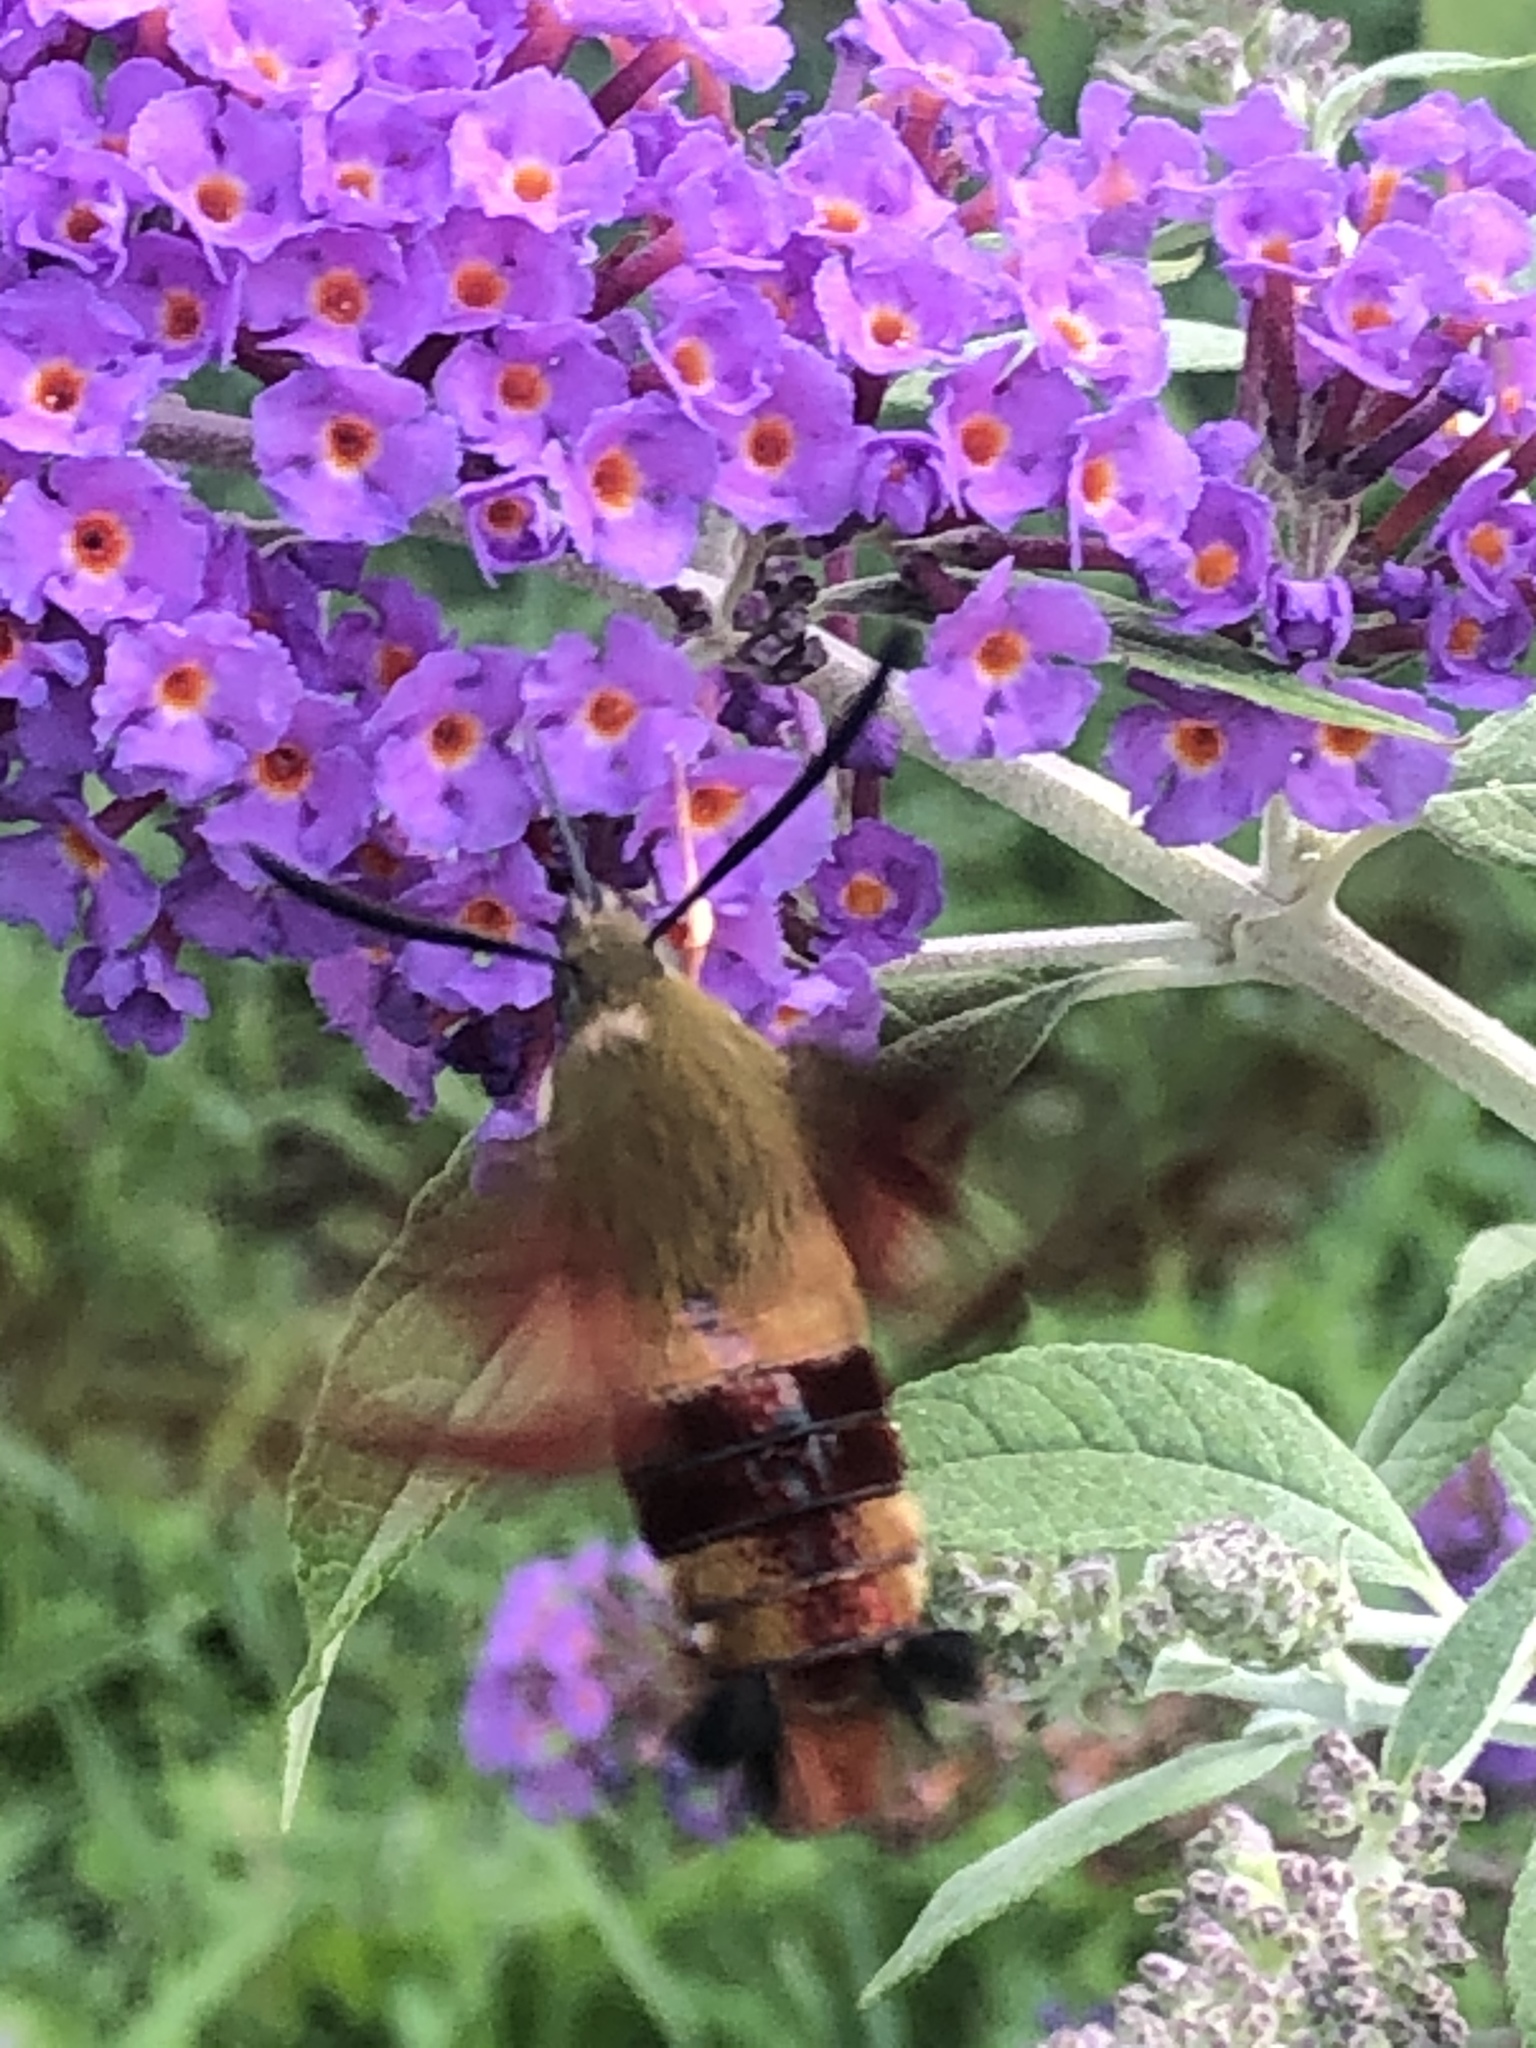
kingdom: Animalia
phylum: Arthropoda
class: Insecta
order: Lepidoptera
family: Sphingidae
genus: Hemaris
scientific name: Hemaris thysbe
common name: Common clear-wing
